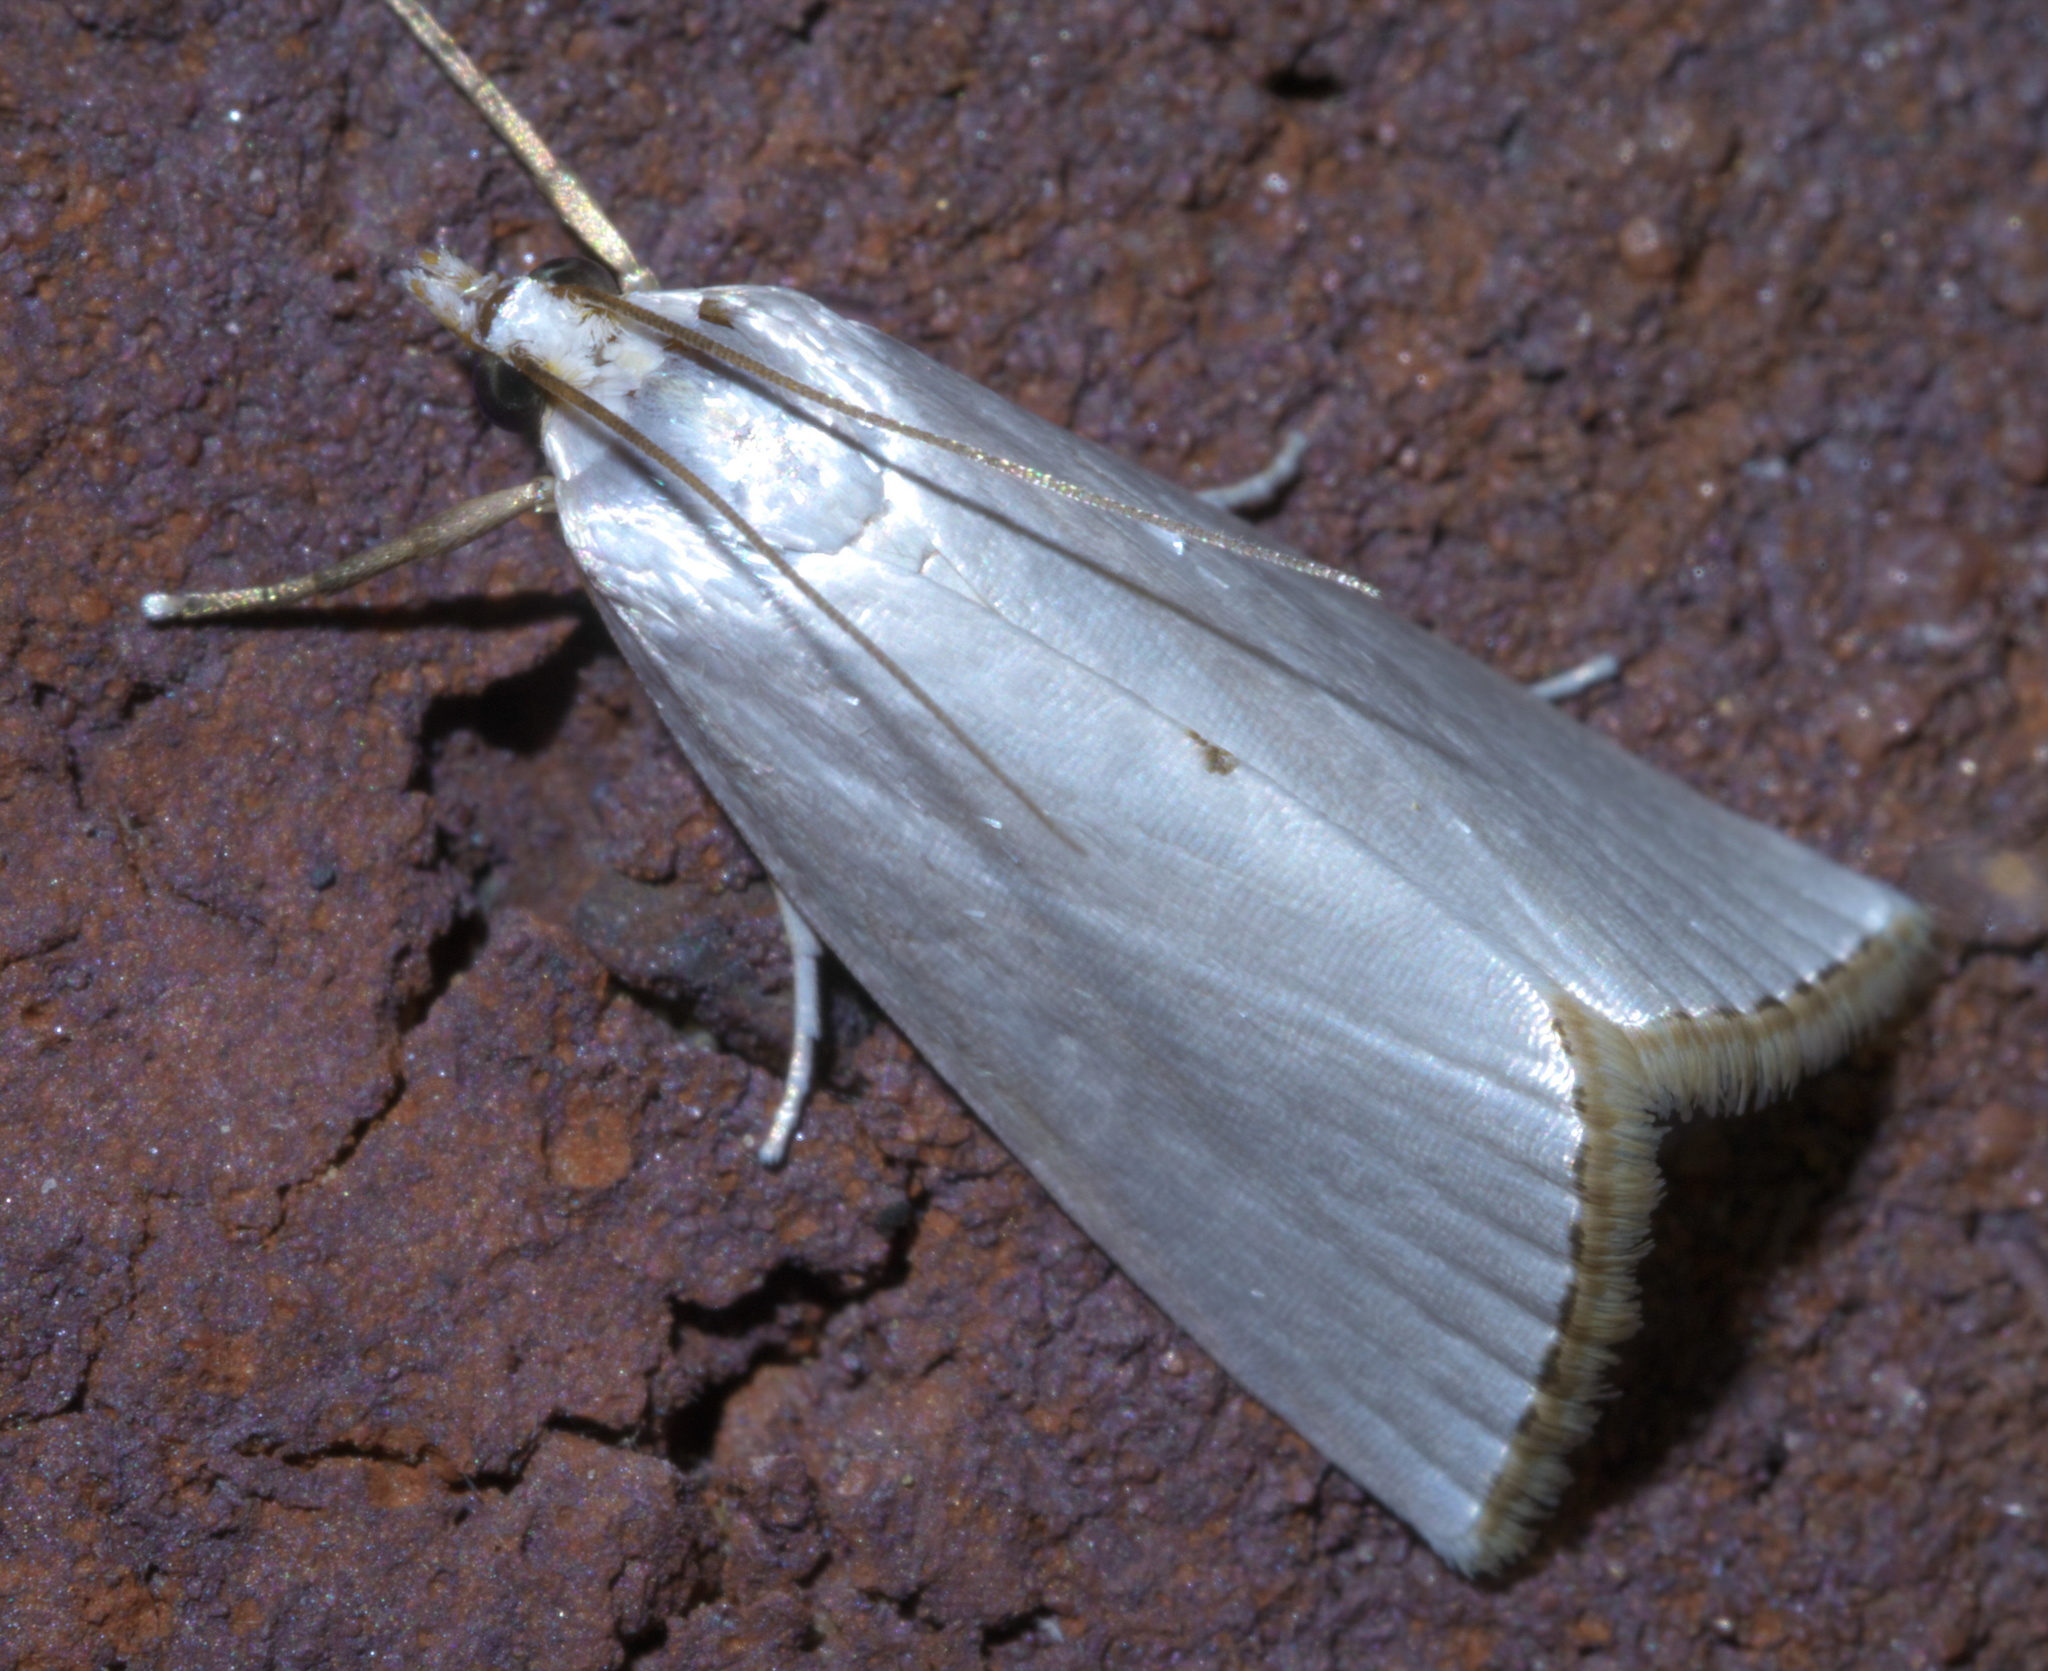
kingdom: Animalia
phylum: Arthropoda
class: Insecta
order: Lepidoptera
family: Crambidae
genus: Argyria
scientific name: Argyria nivalis
